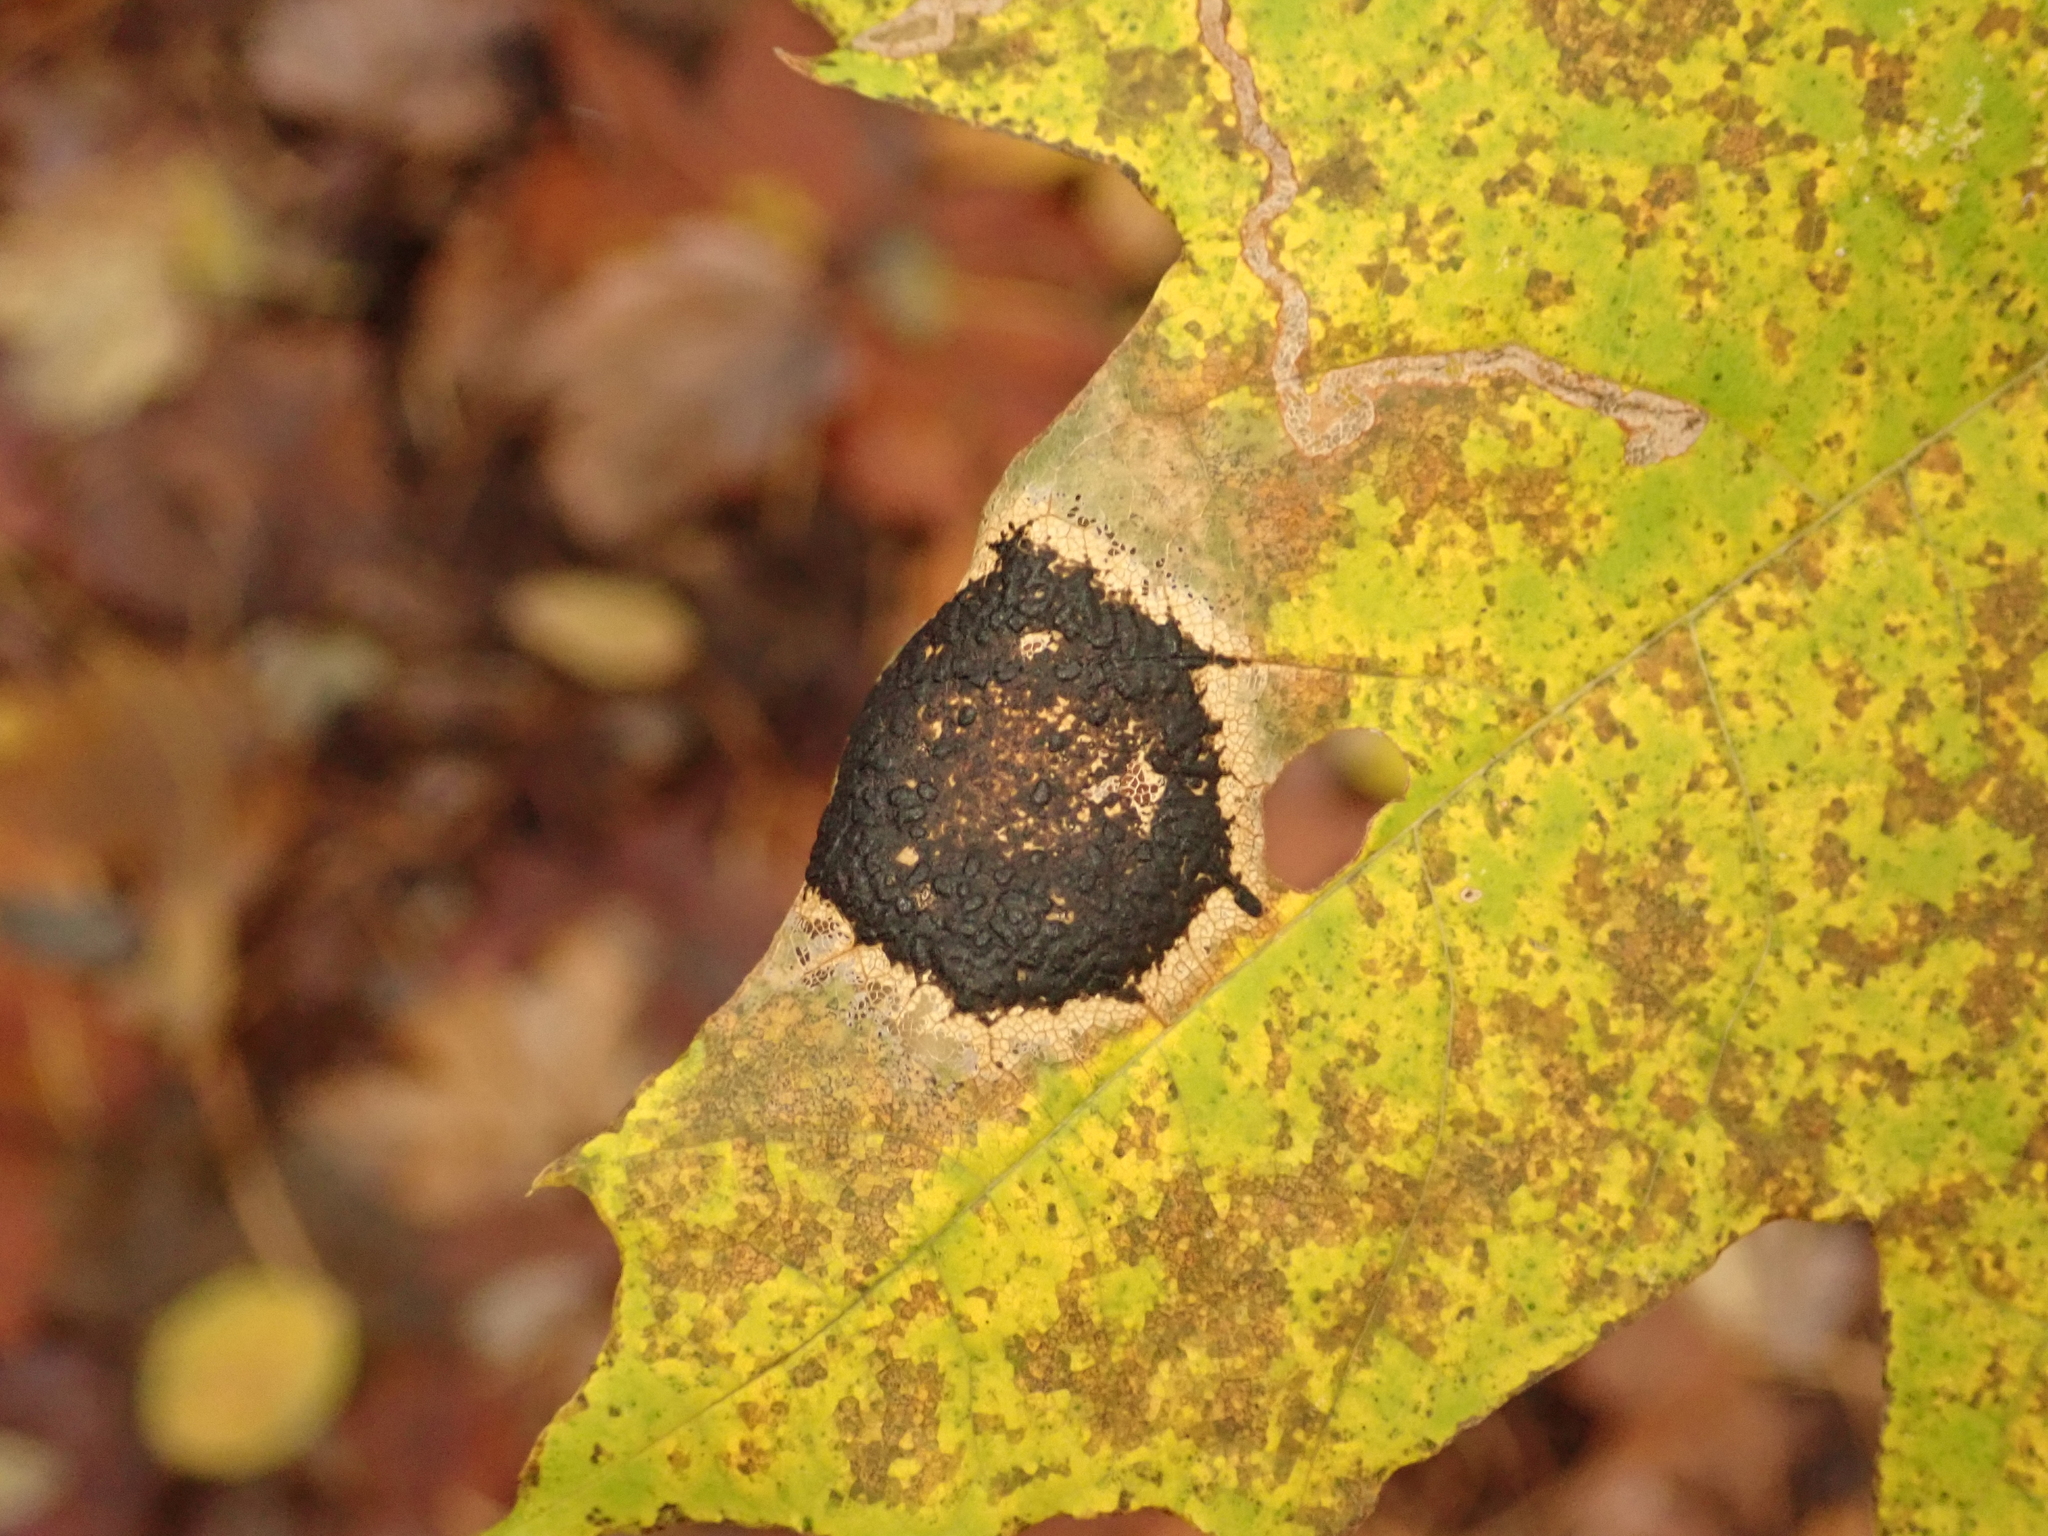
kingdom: Fungi
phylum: Ascomycota
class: Leotiomycetes
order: Rhytismatales
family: Rhytismataceae
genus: Rhytisma
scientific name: Rhytisma acerinum
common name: European tar spot
